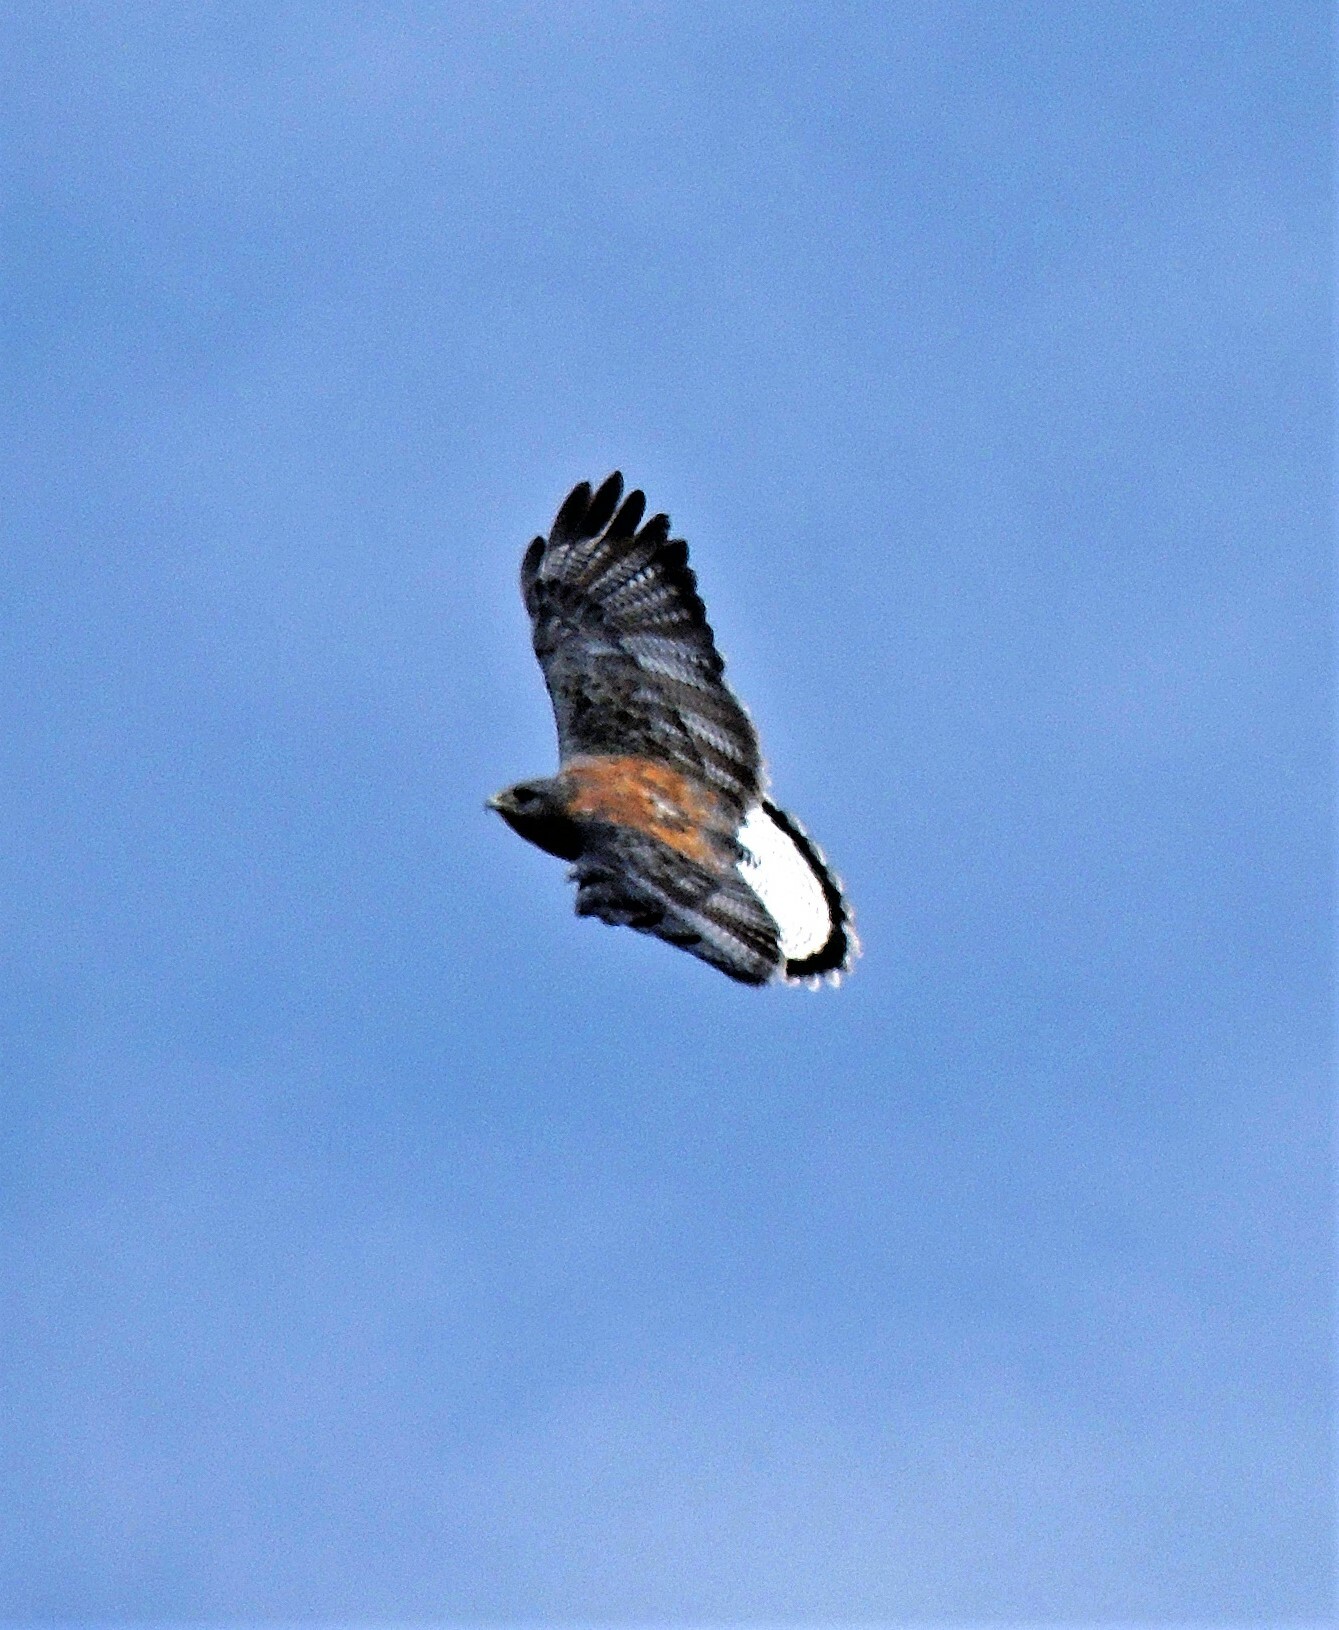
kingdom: Animalia
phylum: Chordata
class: Aves
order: Accipitriformes
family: Accipitridae
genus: Buteo
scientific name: Buteo polyosoma
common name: Variable hawk
